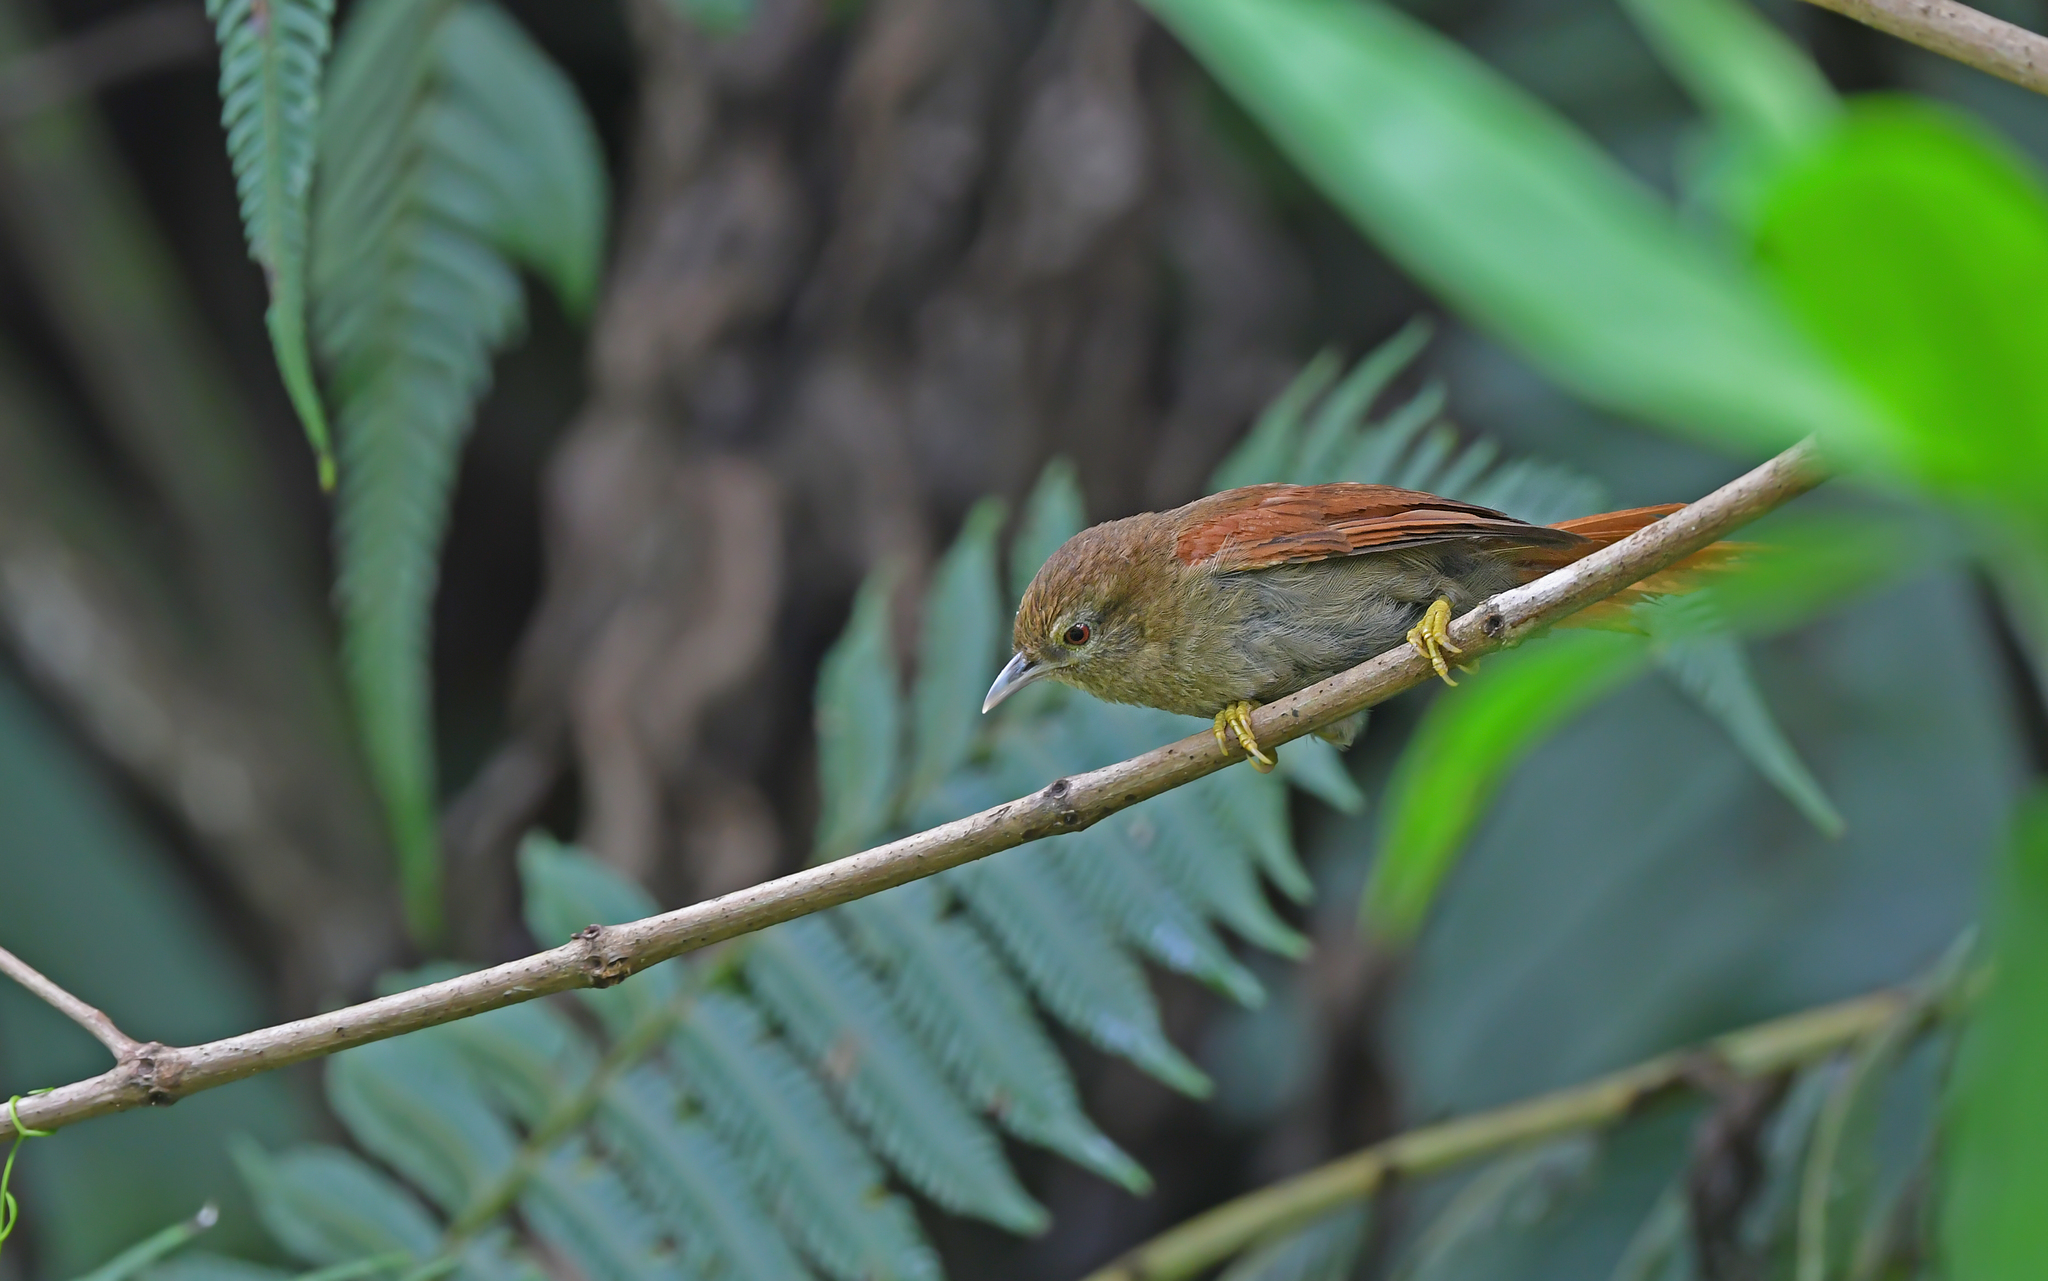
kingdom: Animalia
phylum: Chordata
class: Aves
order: Passeriformes
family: Furnariidae
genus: Thripophaga
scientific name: Thripophaga fusciceps
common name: Plain softtail
